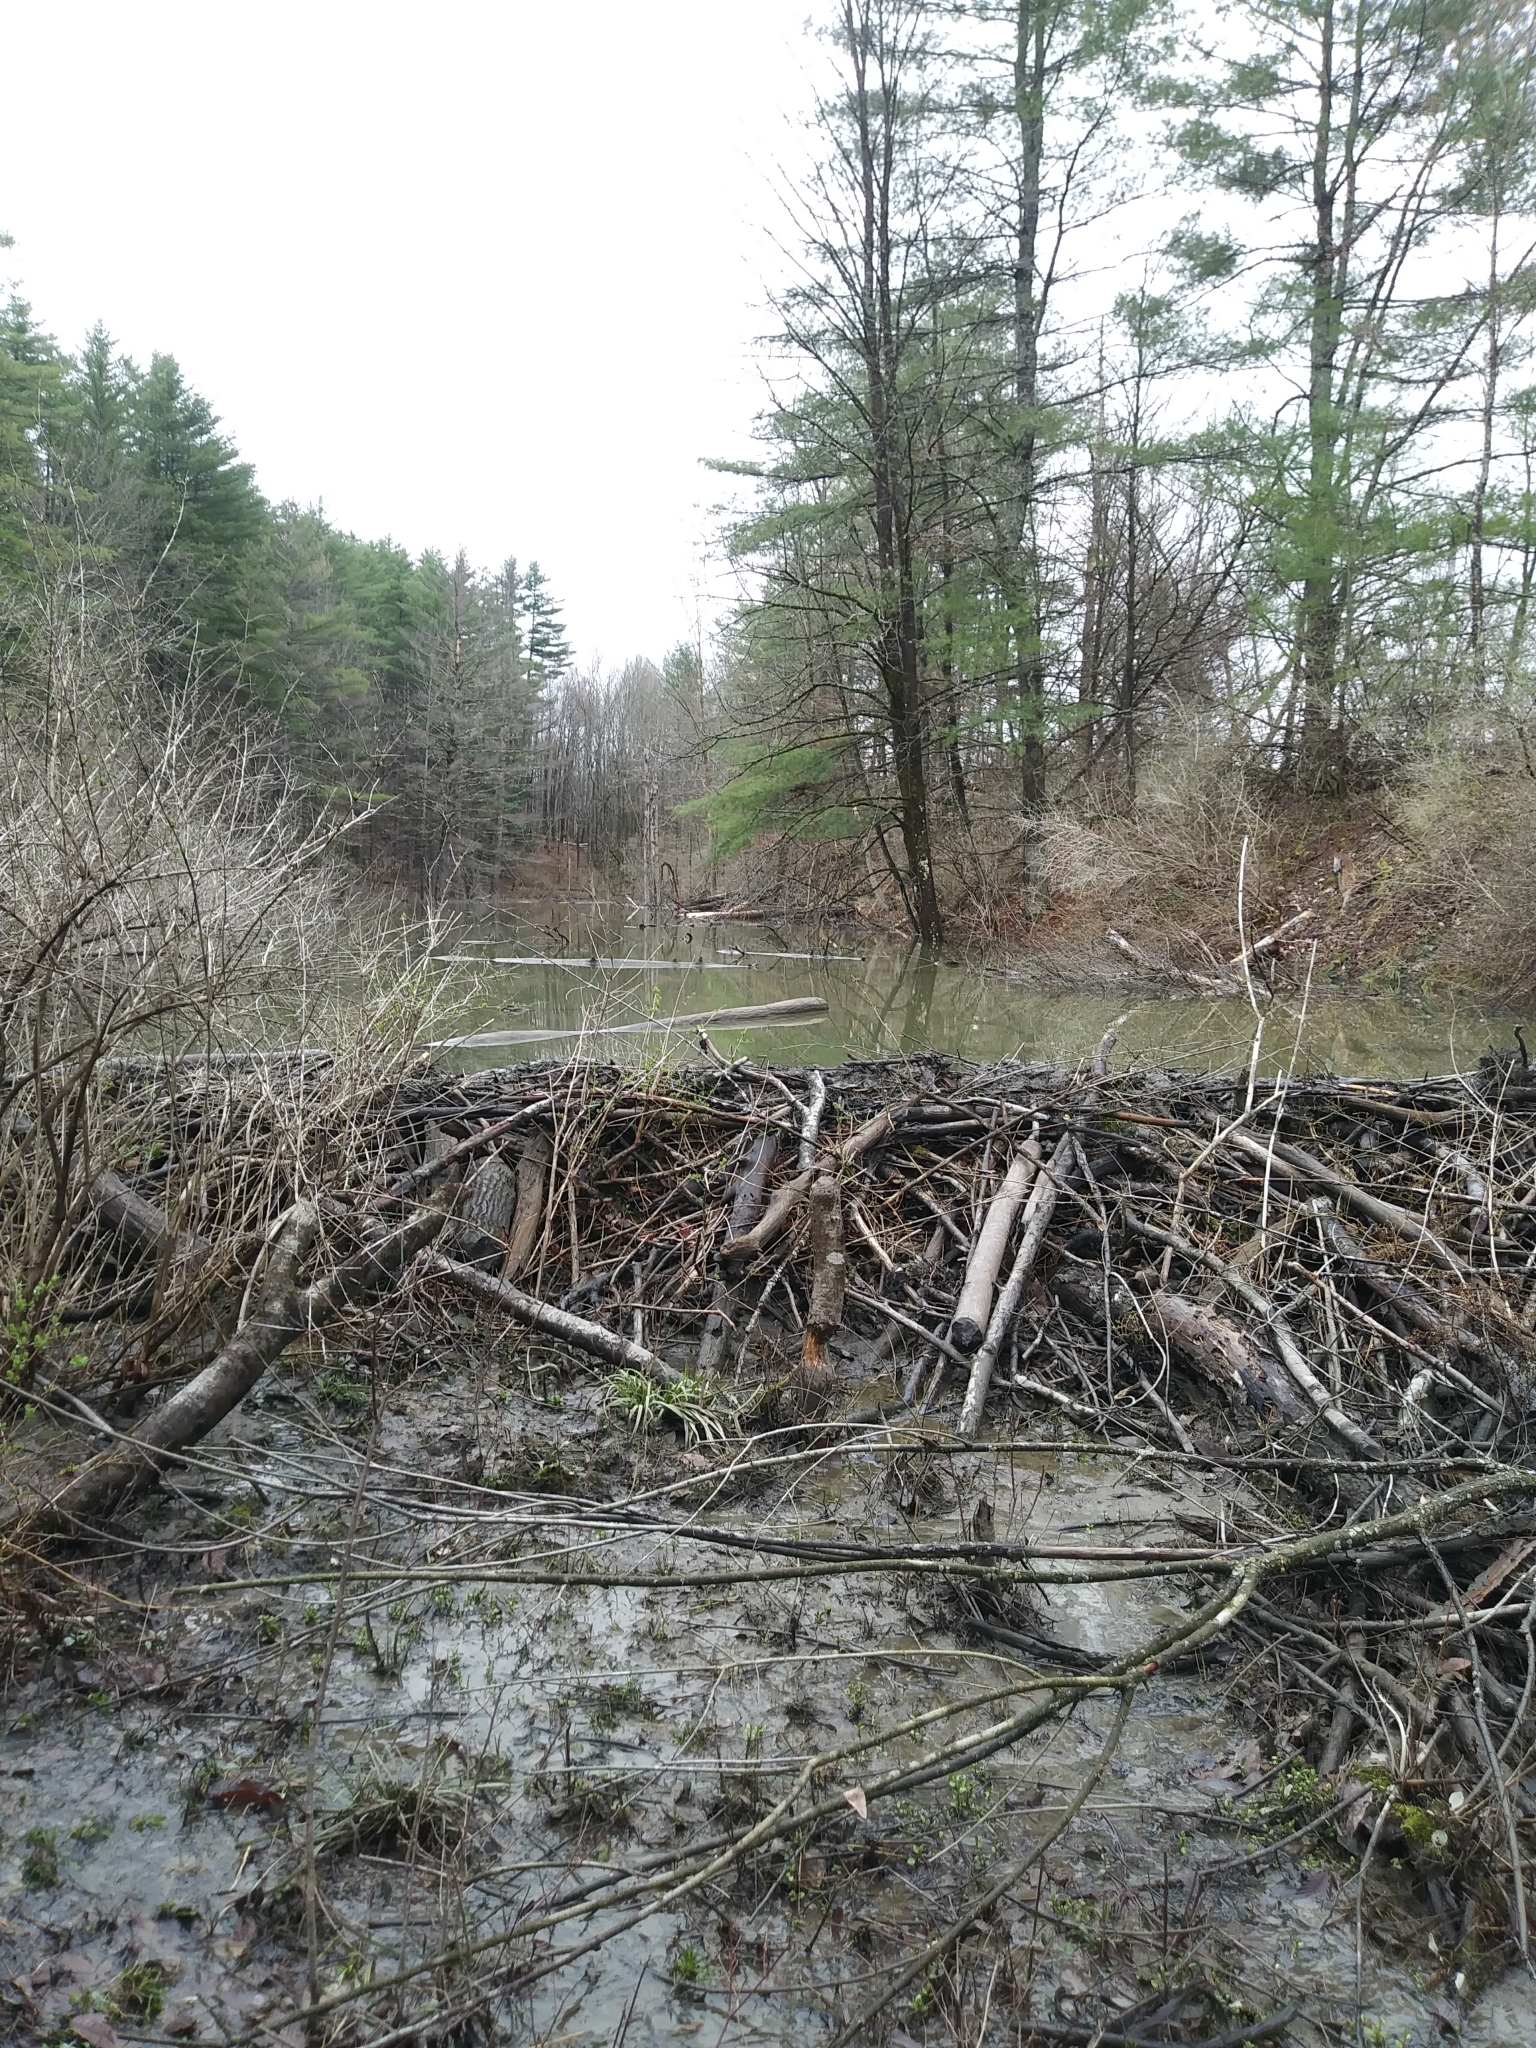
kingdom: Animalia
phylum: Chordata
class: Mammalia
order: Rodentia
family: Castoridae
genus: Castor
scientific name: Castor canadensis
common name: American beaver
